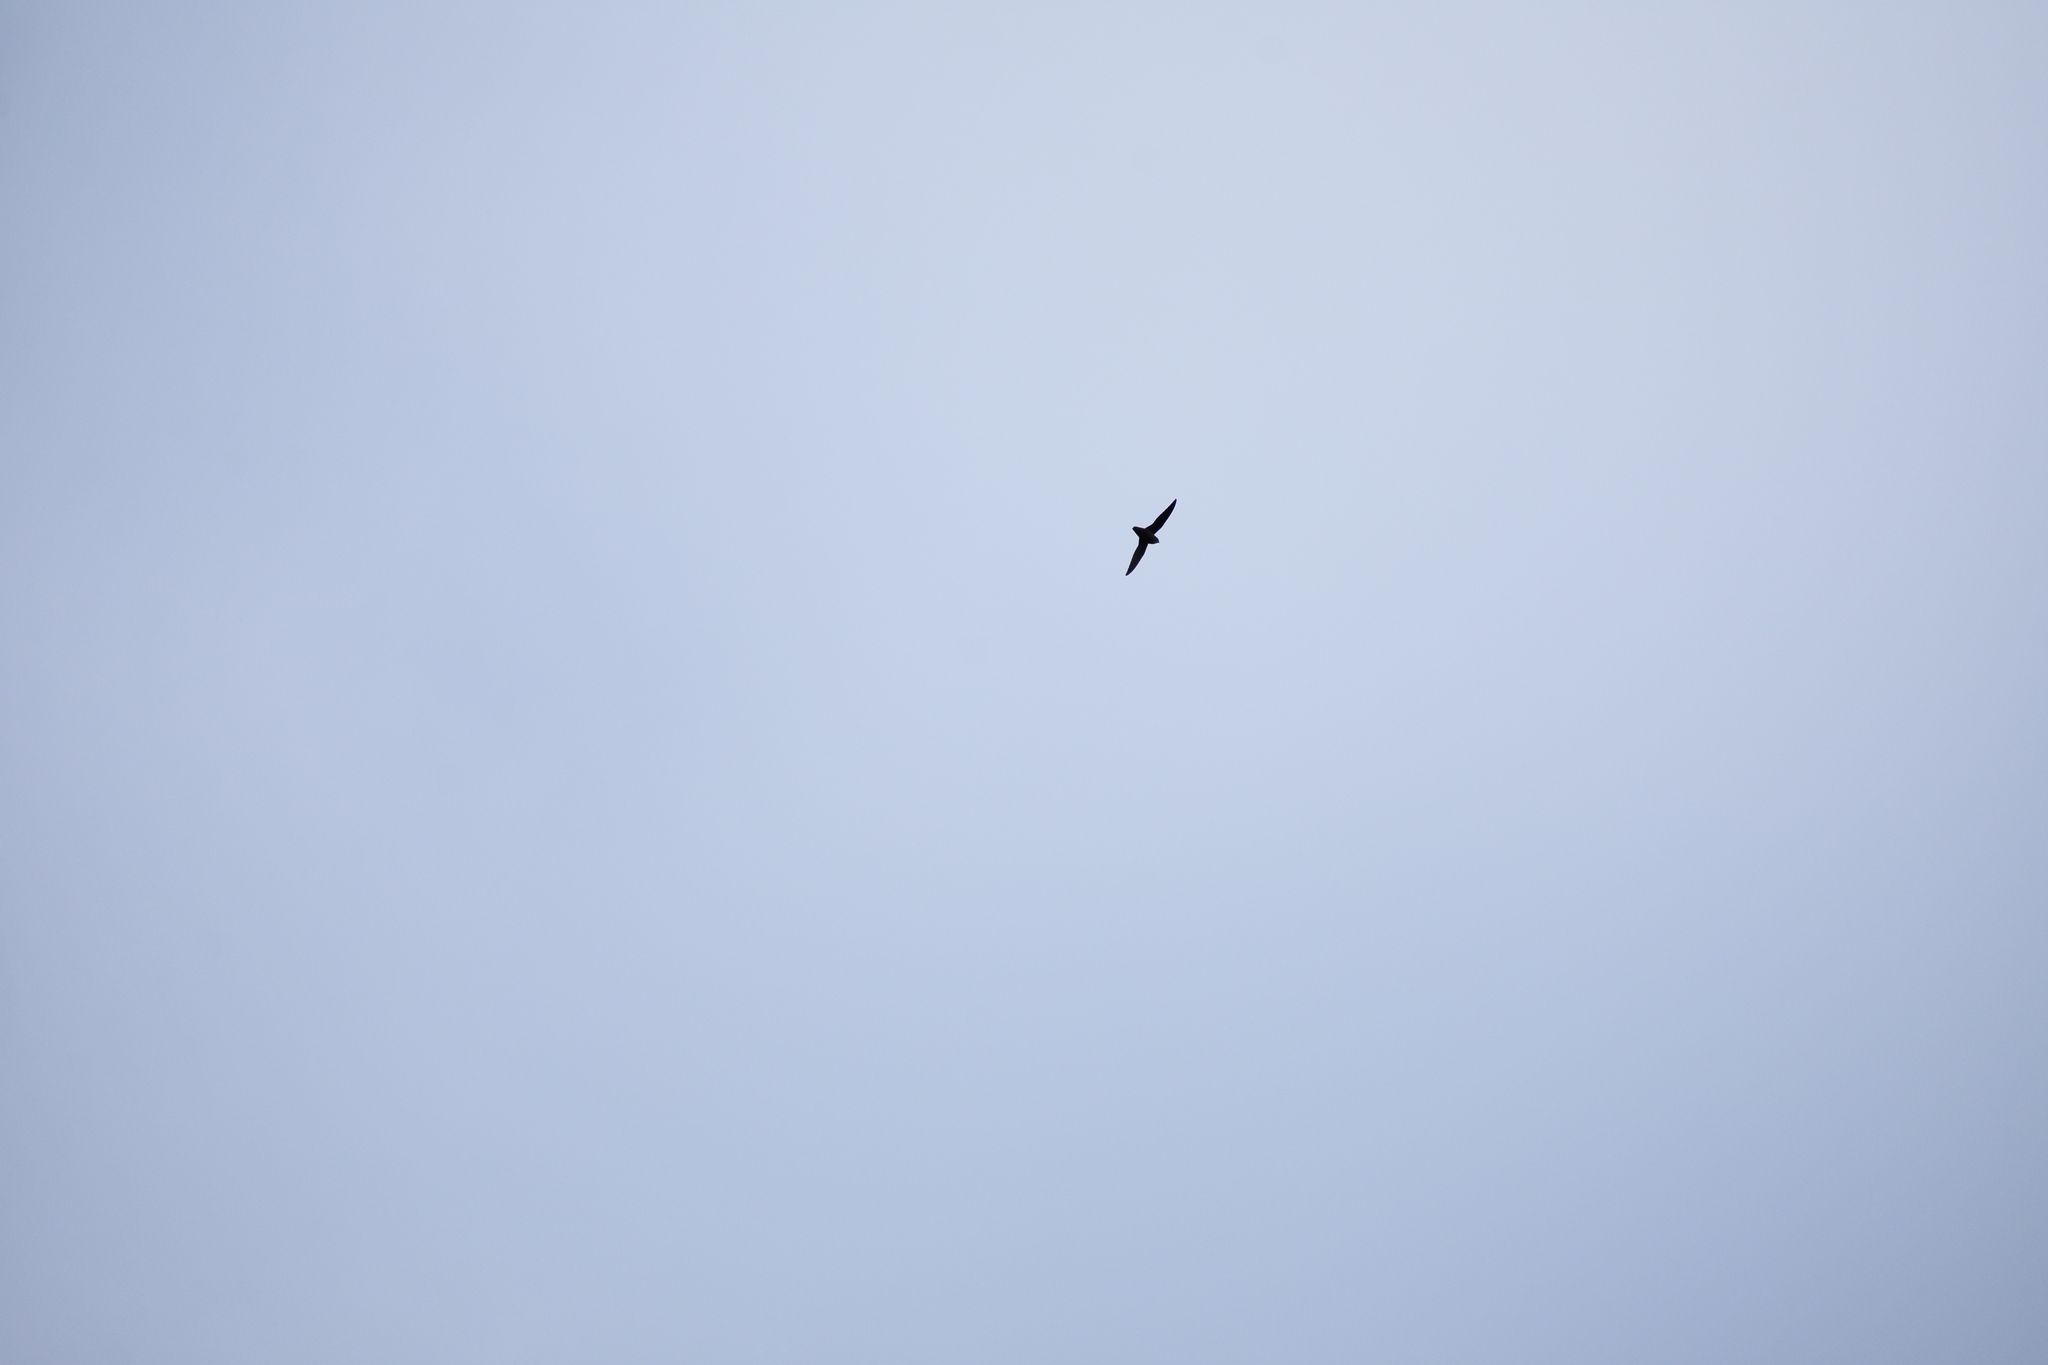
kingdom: Animalia
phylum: Chordata
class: Aves
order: Apodiformes
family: Apodidae
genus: Chaetura
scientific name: Chaetura pelagica
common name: Chimney swift
